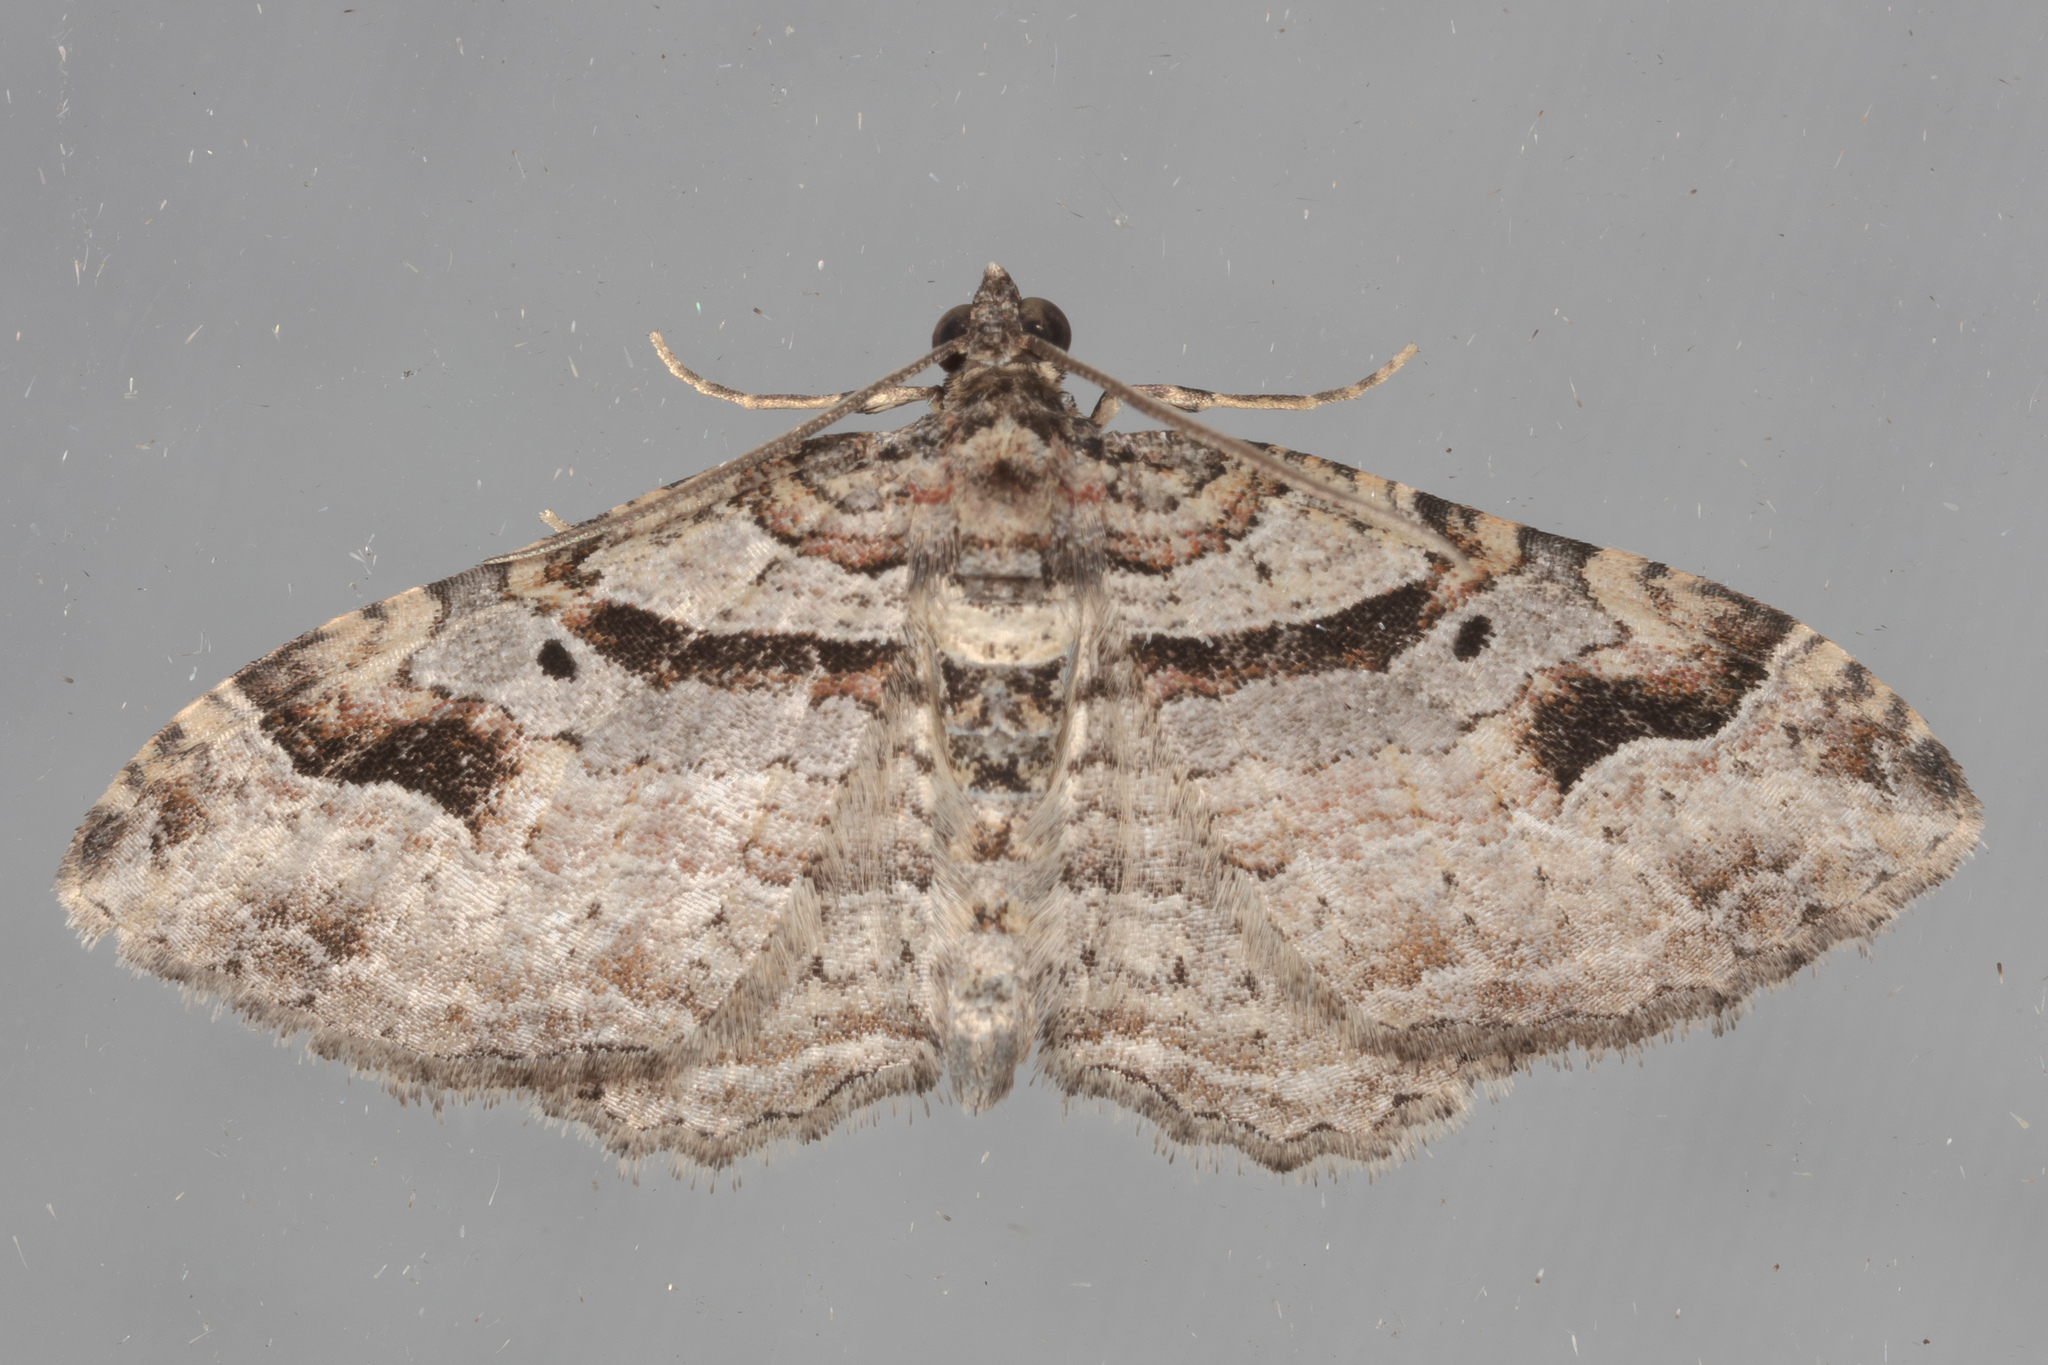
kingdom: Animalia
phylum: Arthropoda
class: Insecta
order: Lepidoptera
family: Geometridae
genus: Costaconvexa
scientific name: Costaconvexa centrostrigaria
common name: Bent-line carpet
